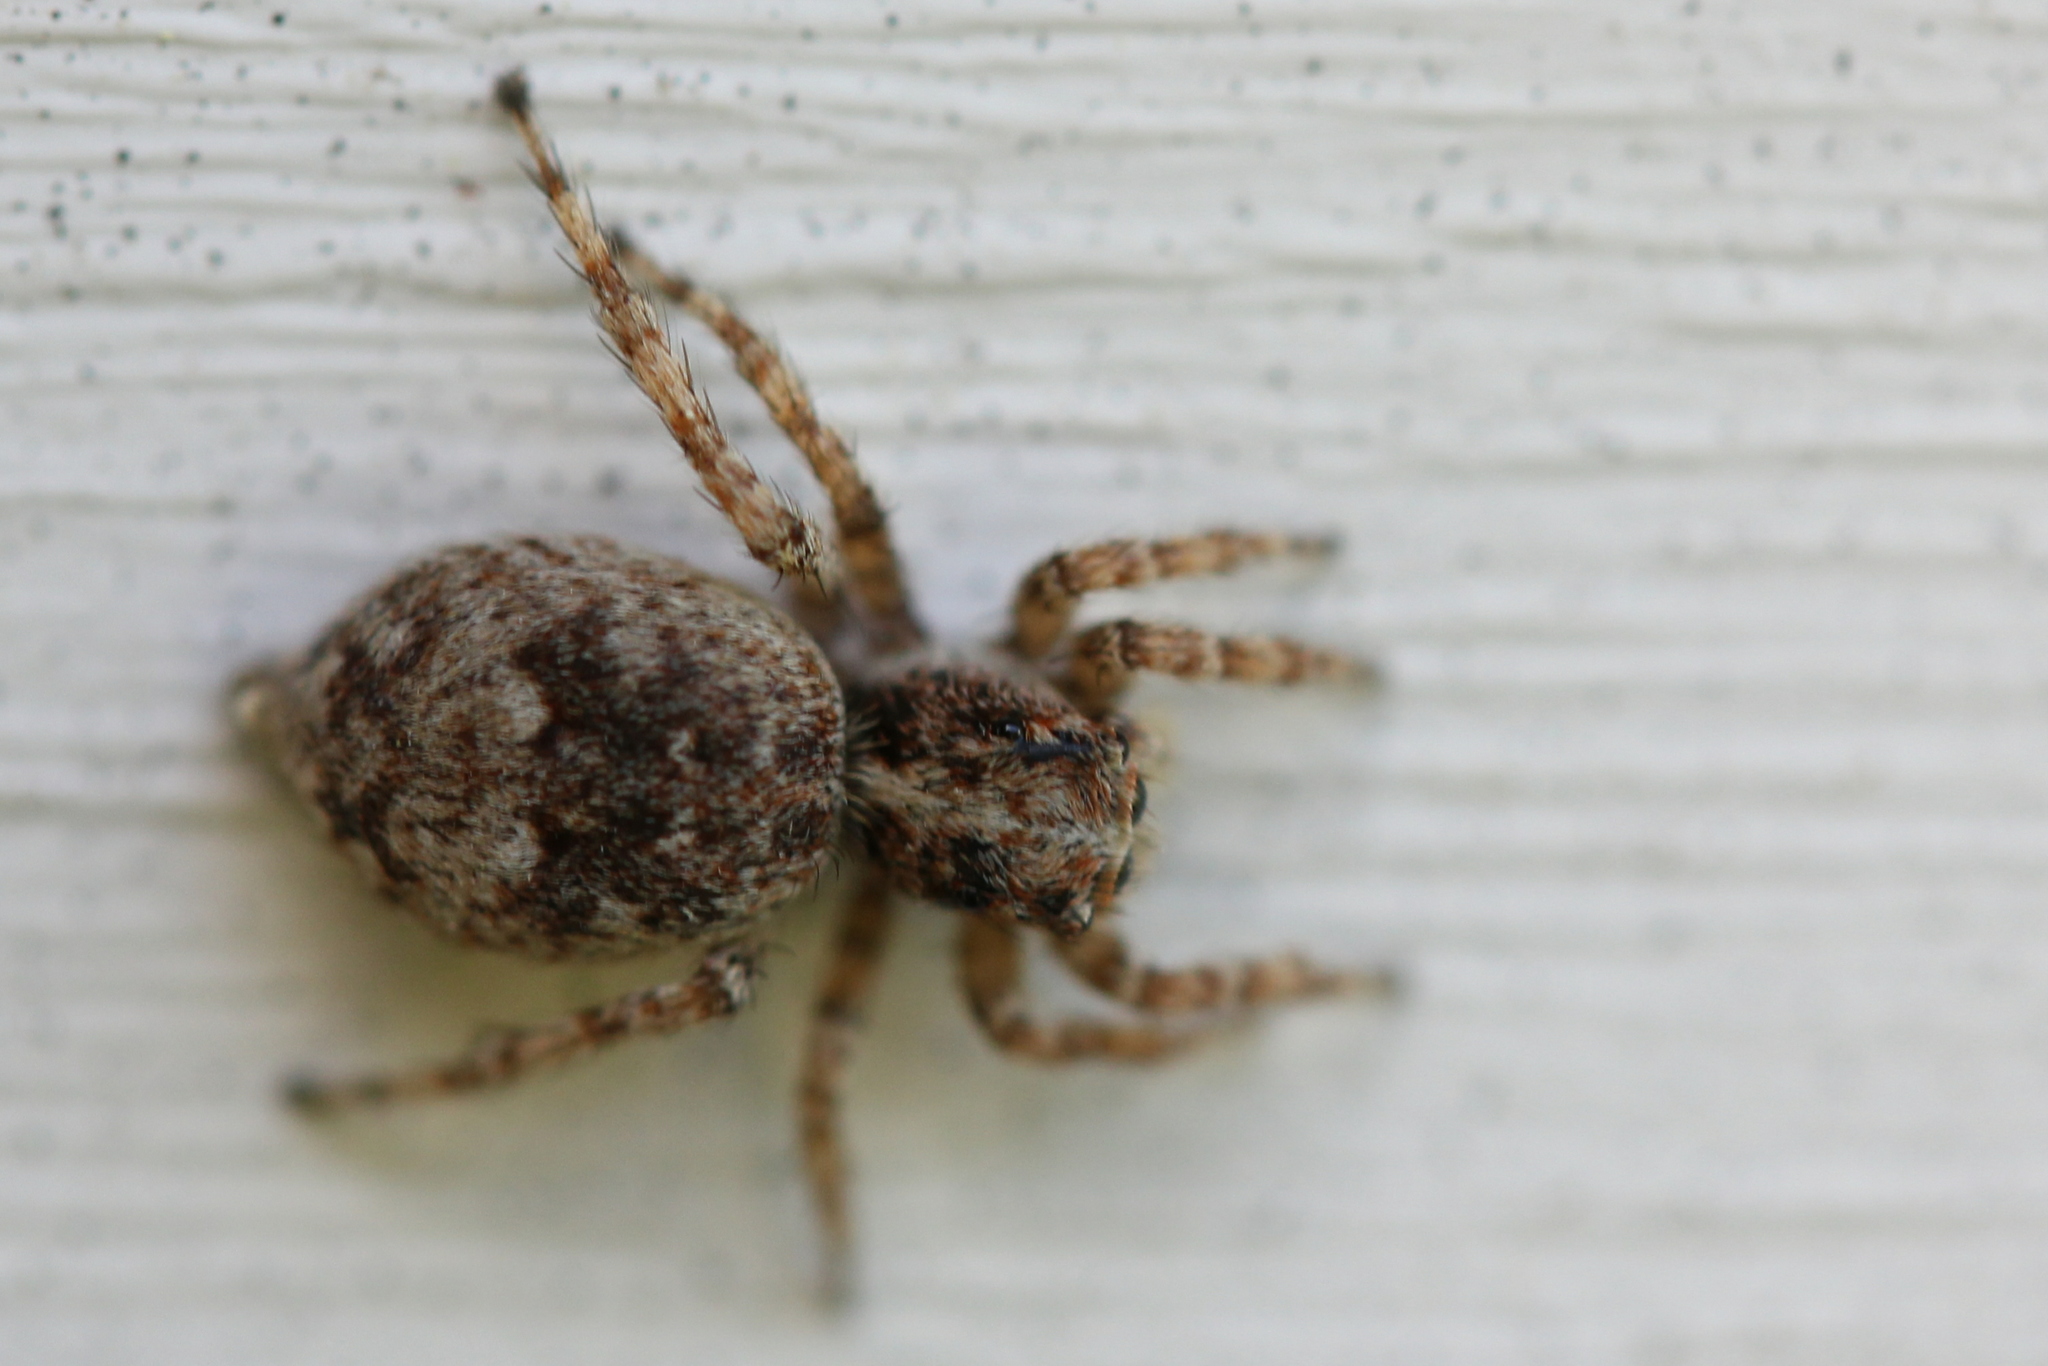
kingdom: Animalia
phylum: Arthropoda
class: Arachnida
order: Araneae
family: Salticidae
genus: Attulus
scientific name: Attulus fasciger
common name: Asiatic wall jumping spider
